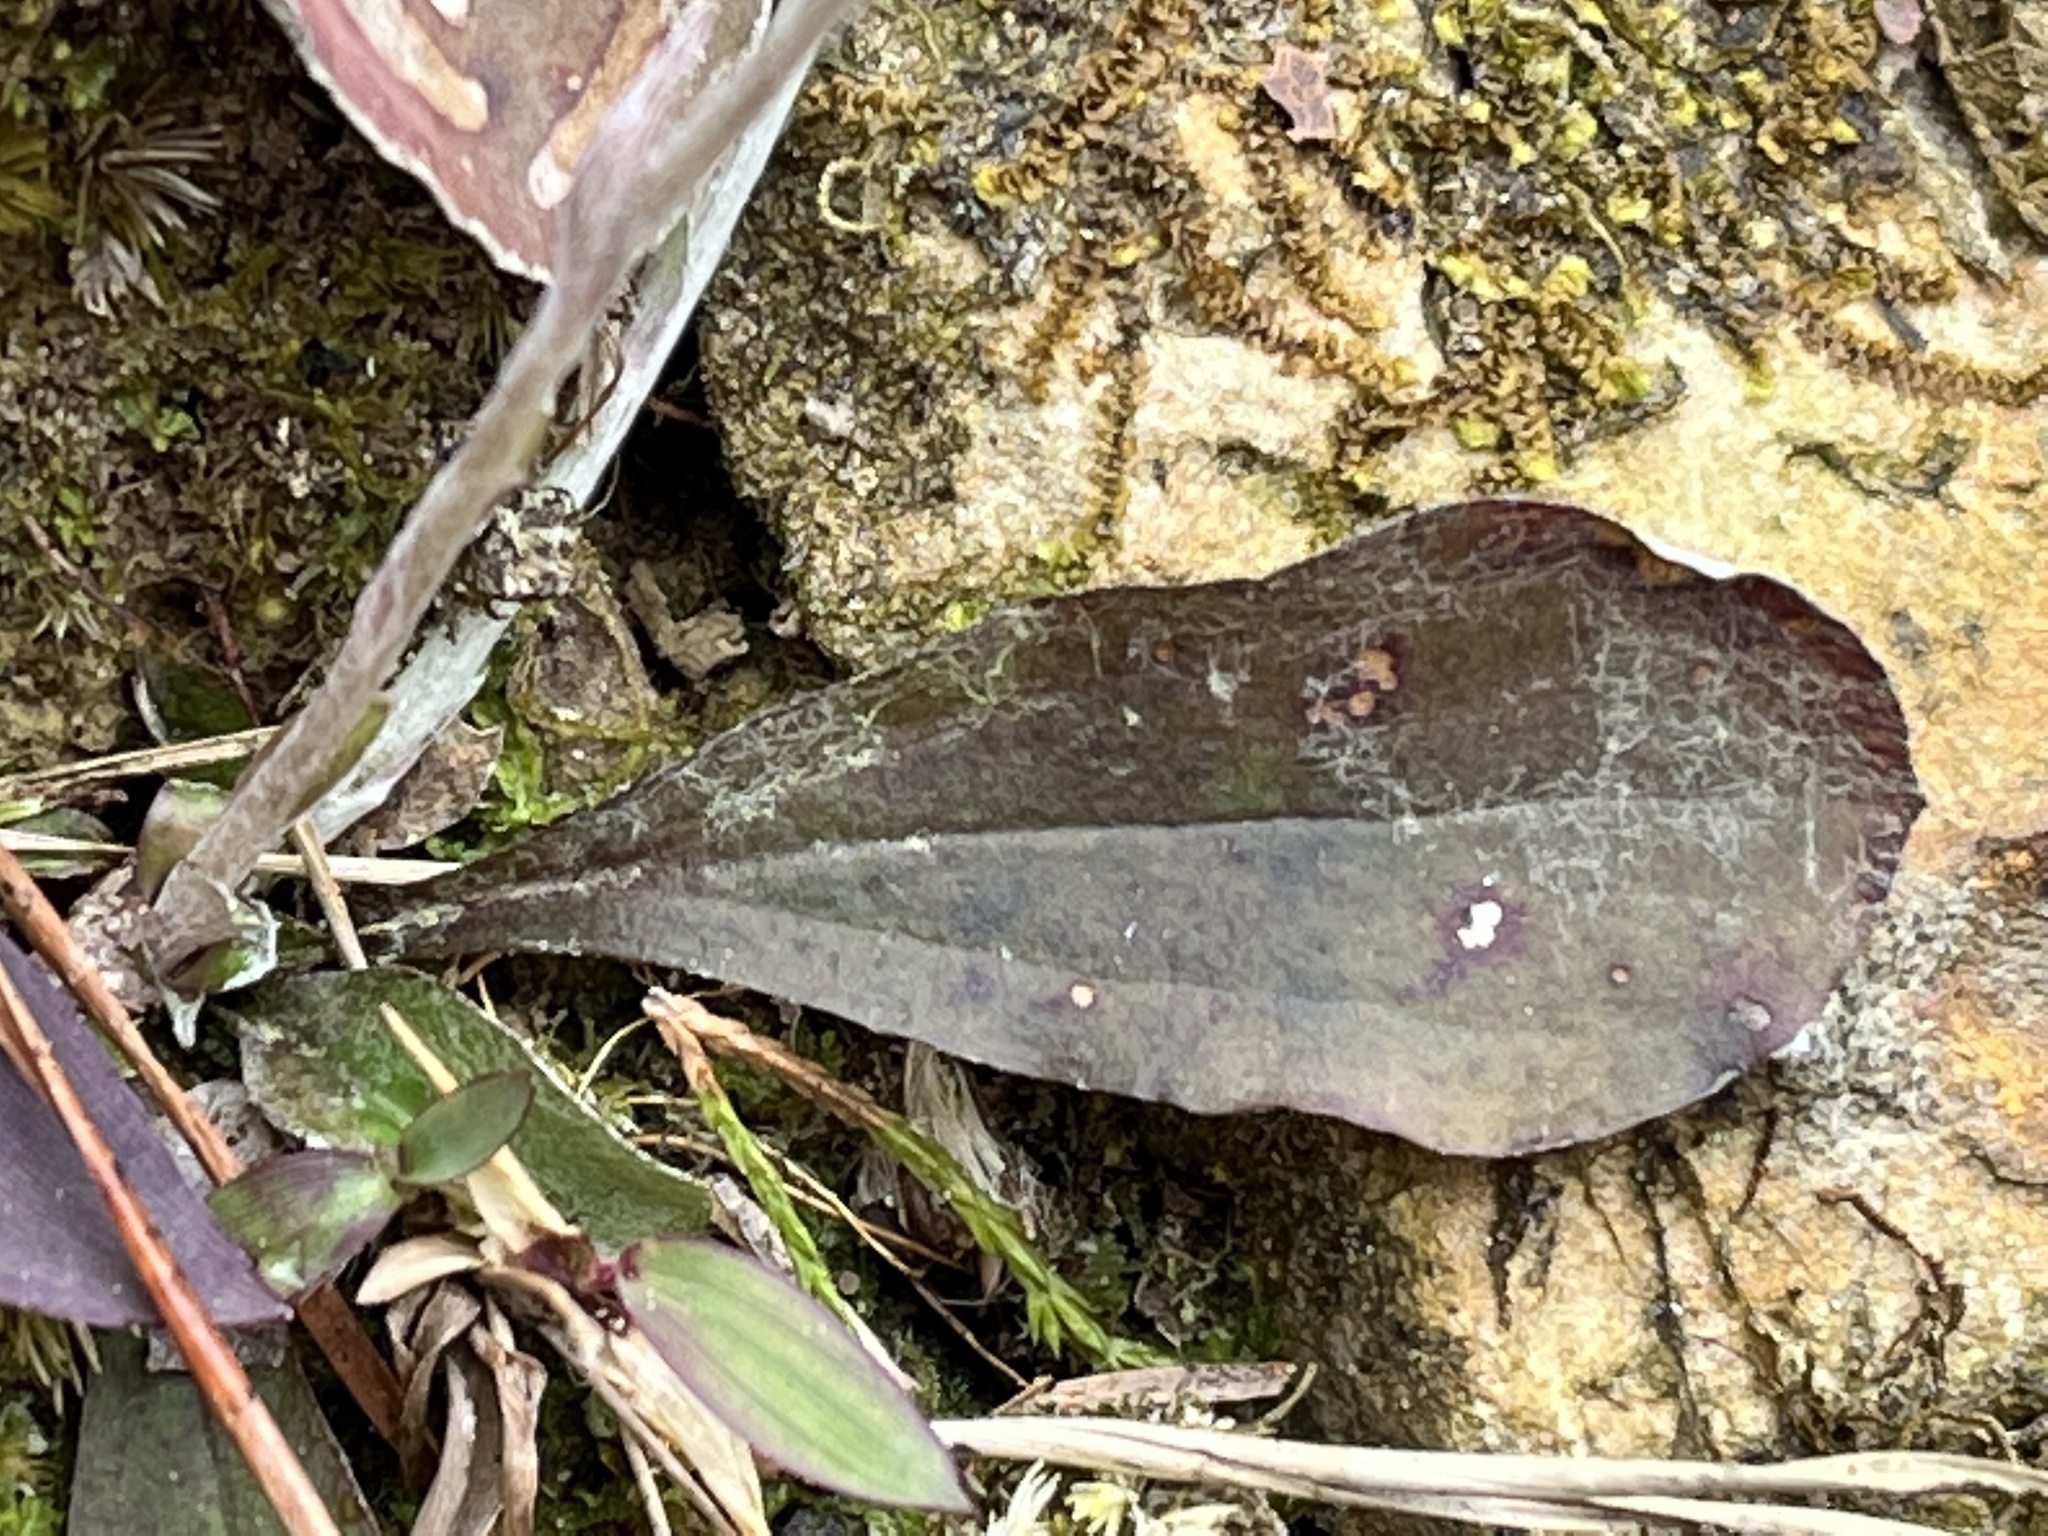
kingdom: Plantae
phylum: Tracheophyta
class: Magnoliopsida
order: Asterales
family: Asteraceae
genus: Antennaria
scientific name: Antennaria solitaria
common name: Single-head pussytoes
